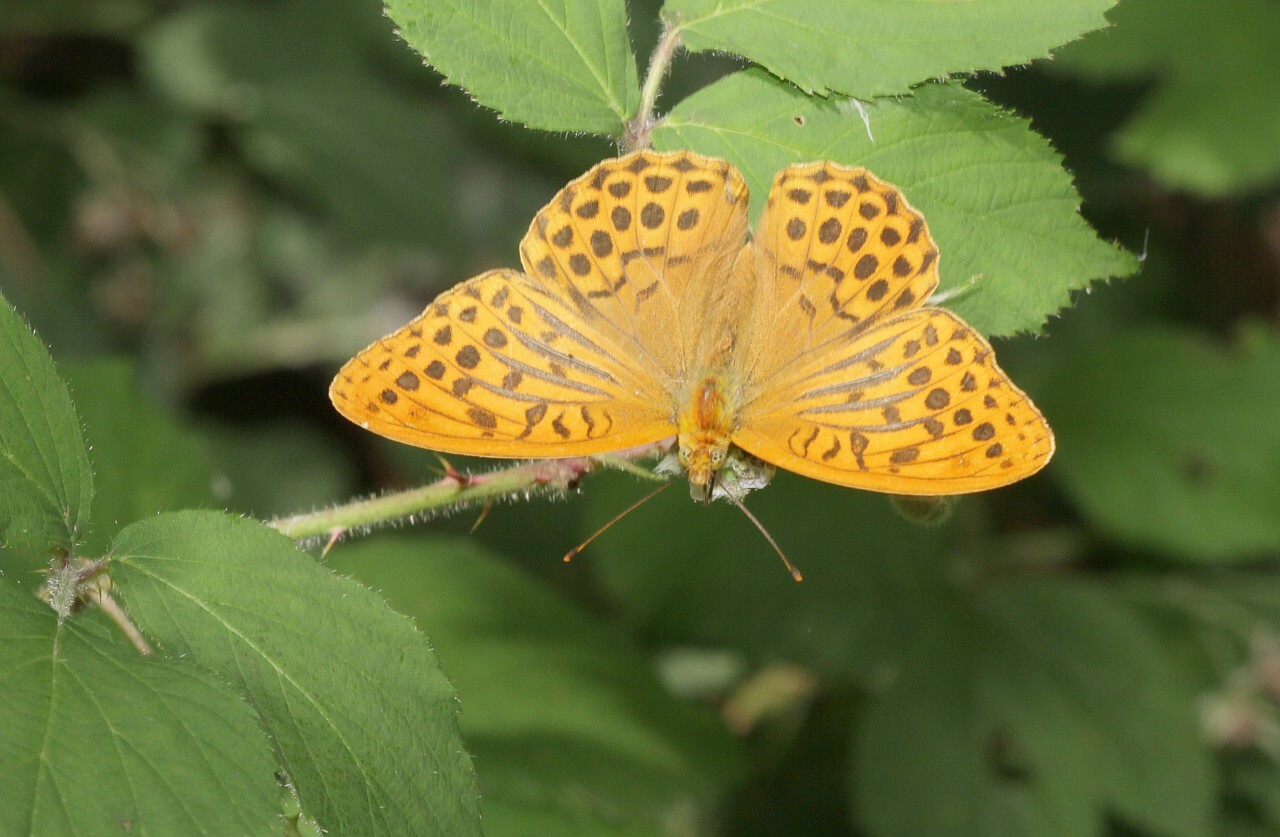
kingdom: Animalia
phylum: Arthropoda
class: Insecta
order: Lepidoptera
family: Nymphalidae
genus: Argynnis
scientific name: Argynnis paphia
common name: Silver-washed fritillary
